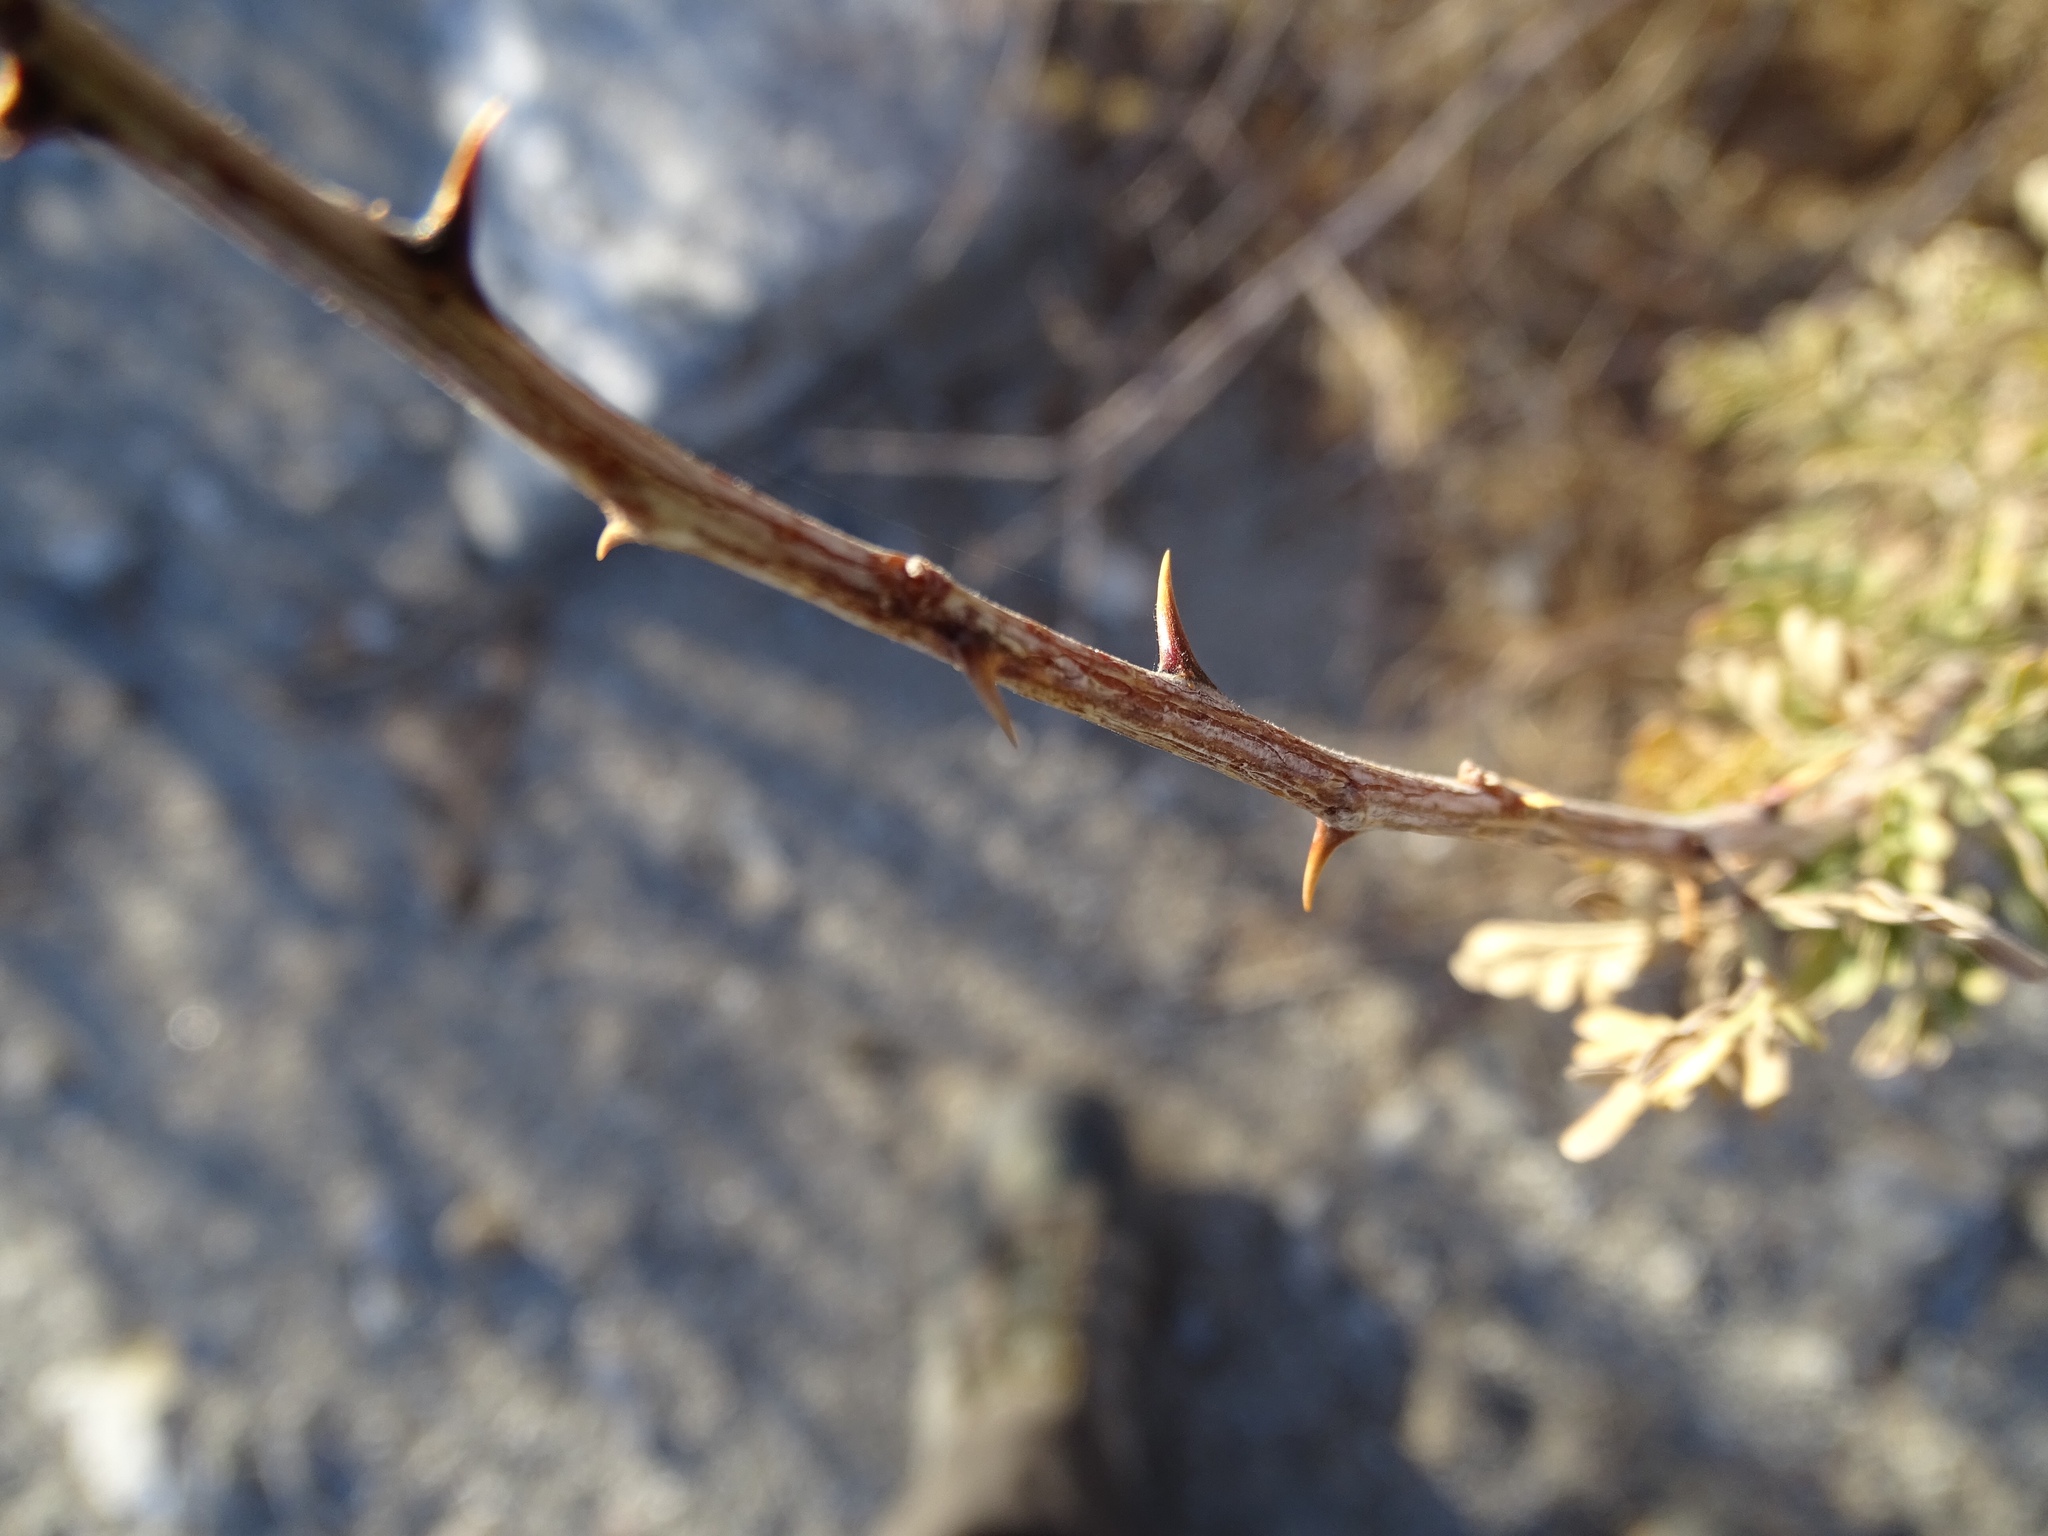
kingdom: Plantae
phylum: Tracheophyta
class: Magnoliopsida
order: Fabales
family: Fabaceae
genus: Senegalia
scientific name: Senegalia greggii
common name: Texas-mimosa
